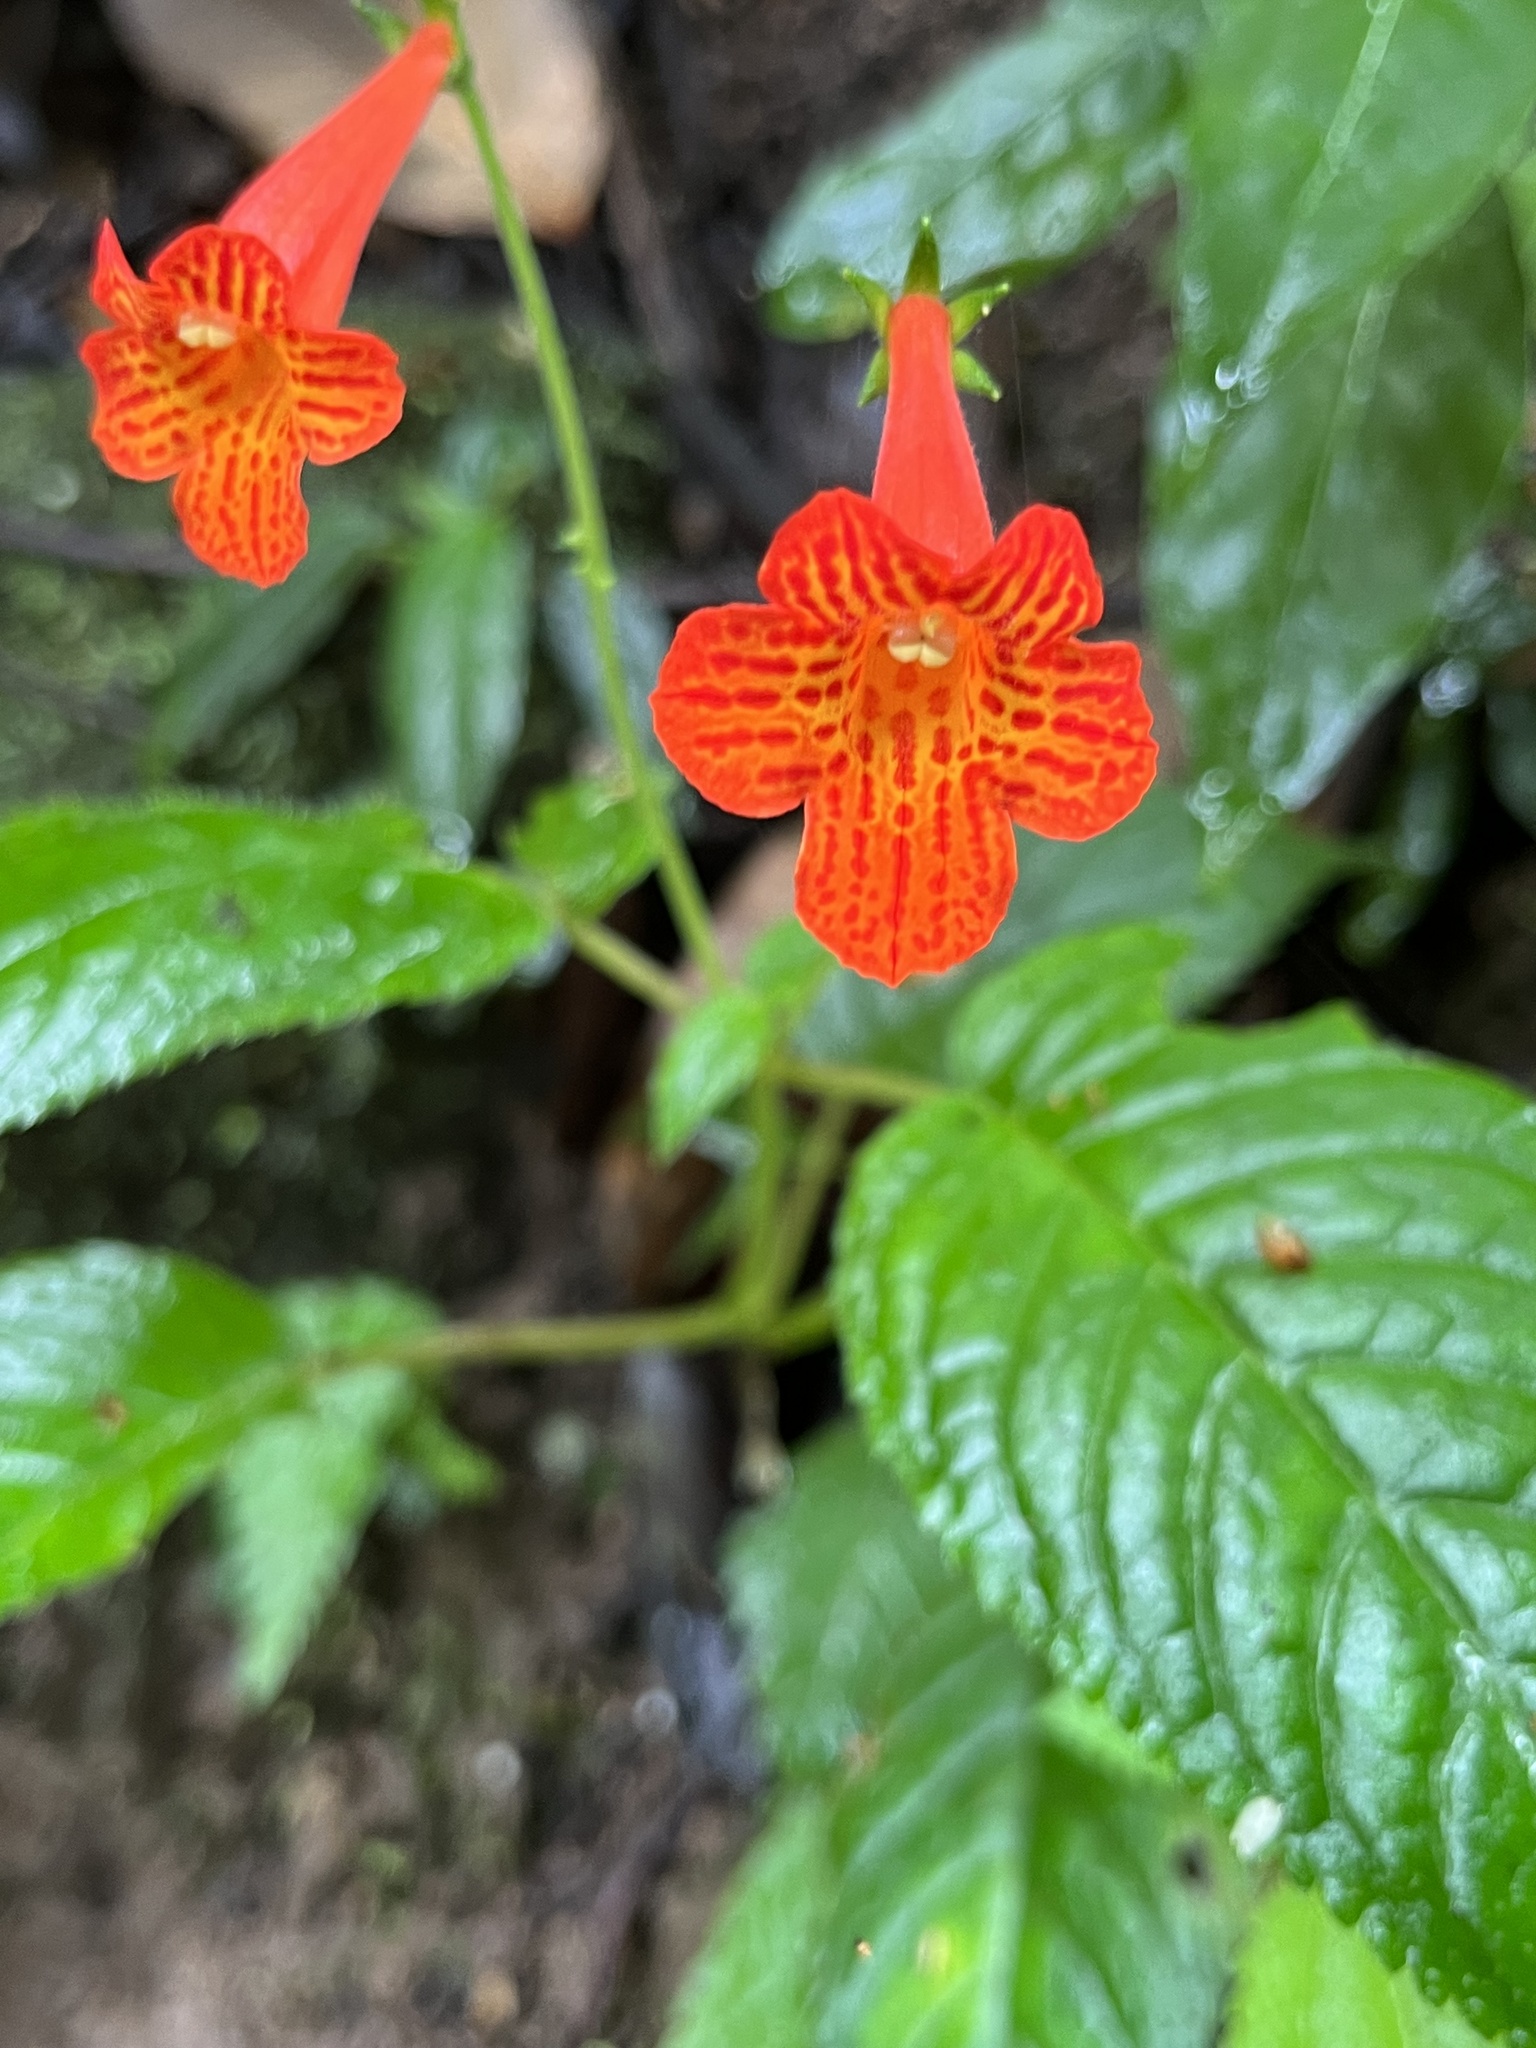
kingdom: Plantae
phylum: Tracheophyta
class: Magnoliopsida
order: Lamiales
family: Gesneriaceae
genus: Achimenes
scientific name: Achimenes pedunculata
